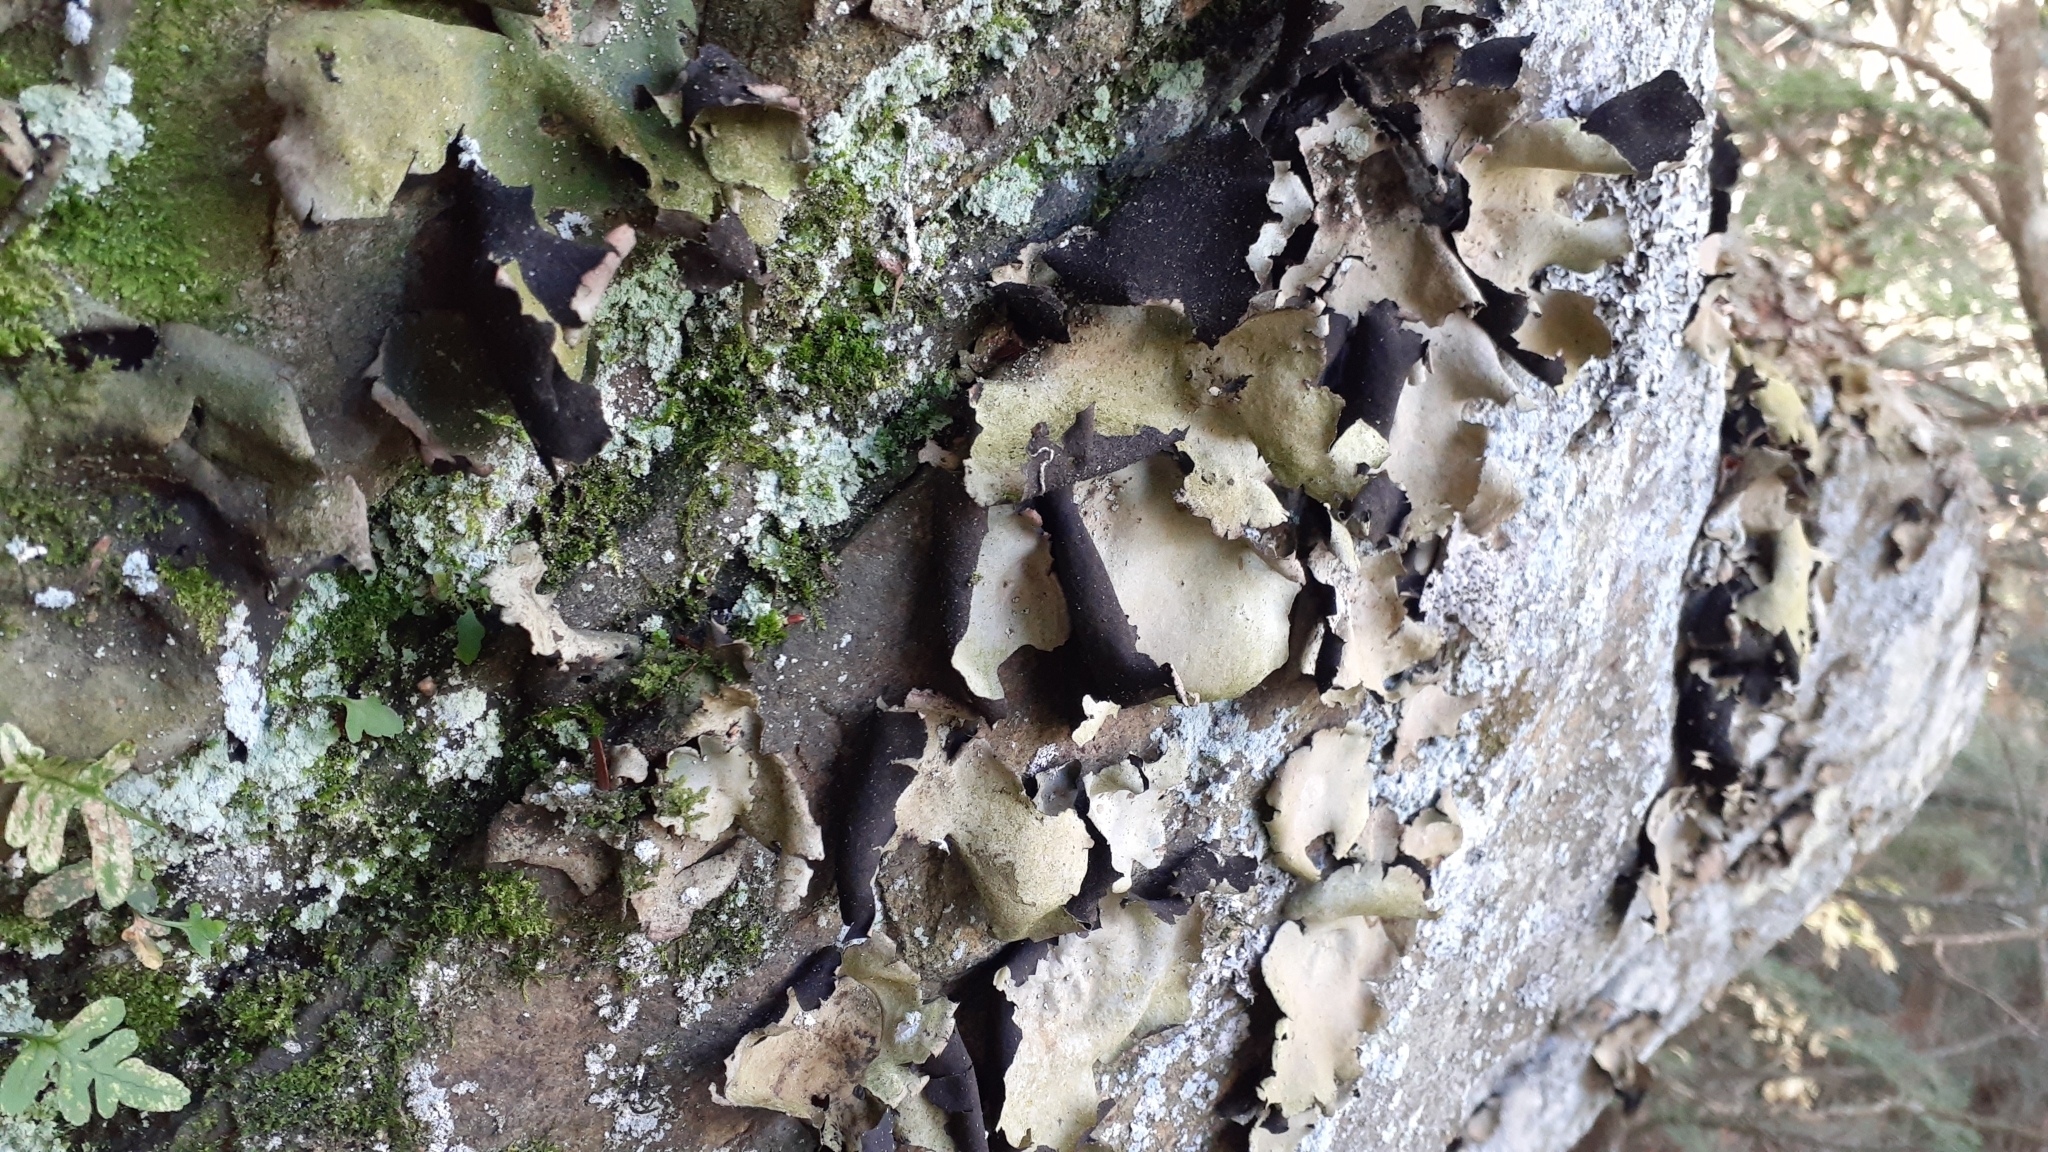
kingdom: Fungi
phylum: Ascomycota
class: Lecanoromycetes
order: Umbilicariales
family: Umbilicariaceae
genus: Umbilicaria
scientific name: Umbilicaria mammulata
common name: Smooth rock tripe
